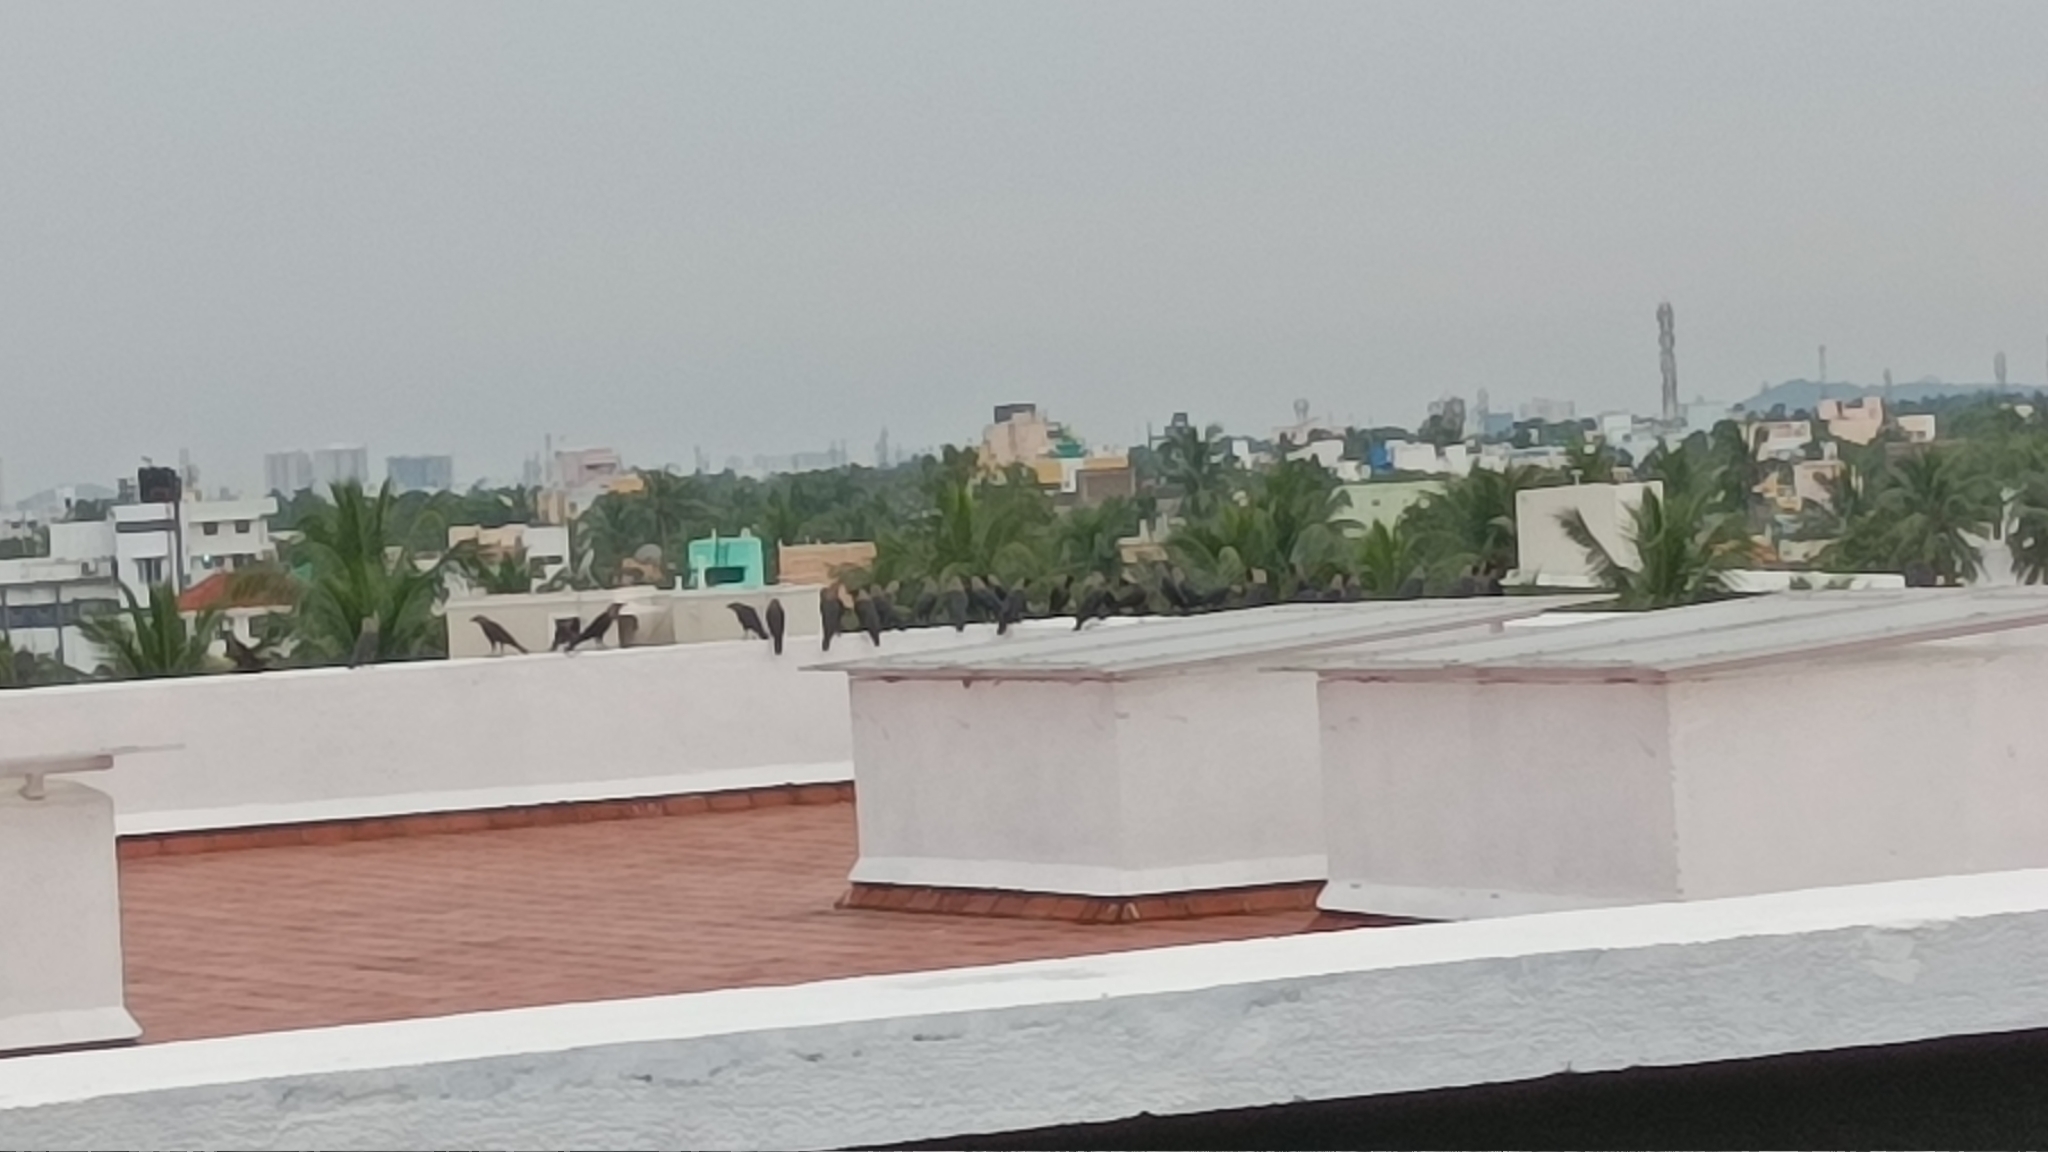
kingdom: Animalia
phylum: Chordata
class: Aves
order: Passeriformes
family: Corvidae
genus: Corvus
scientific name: Corvus splendens
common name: House crow
